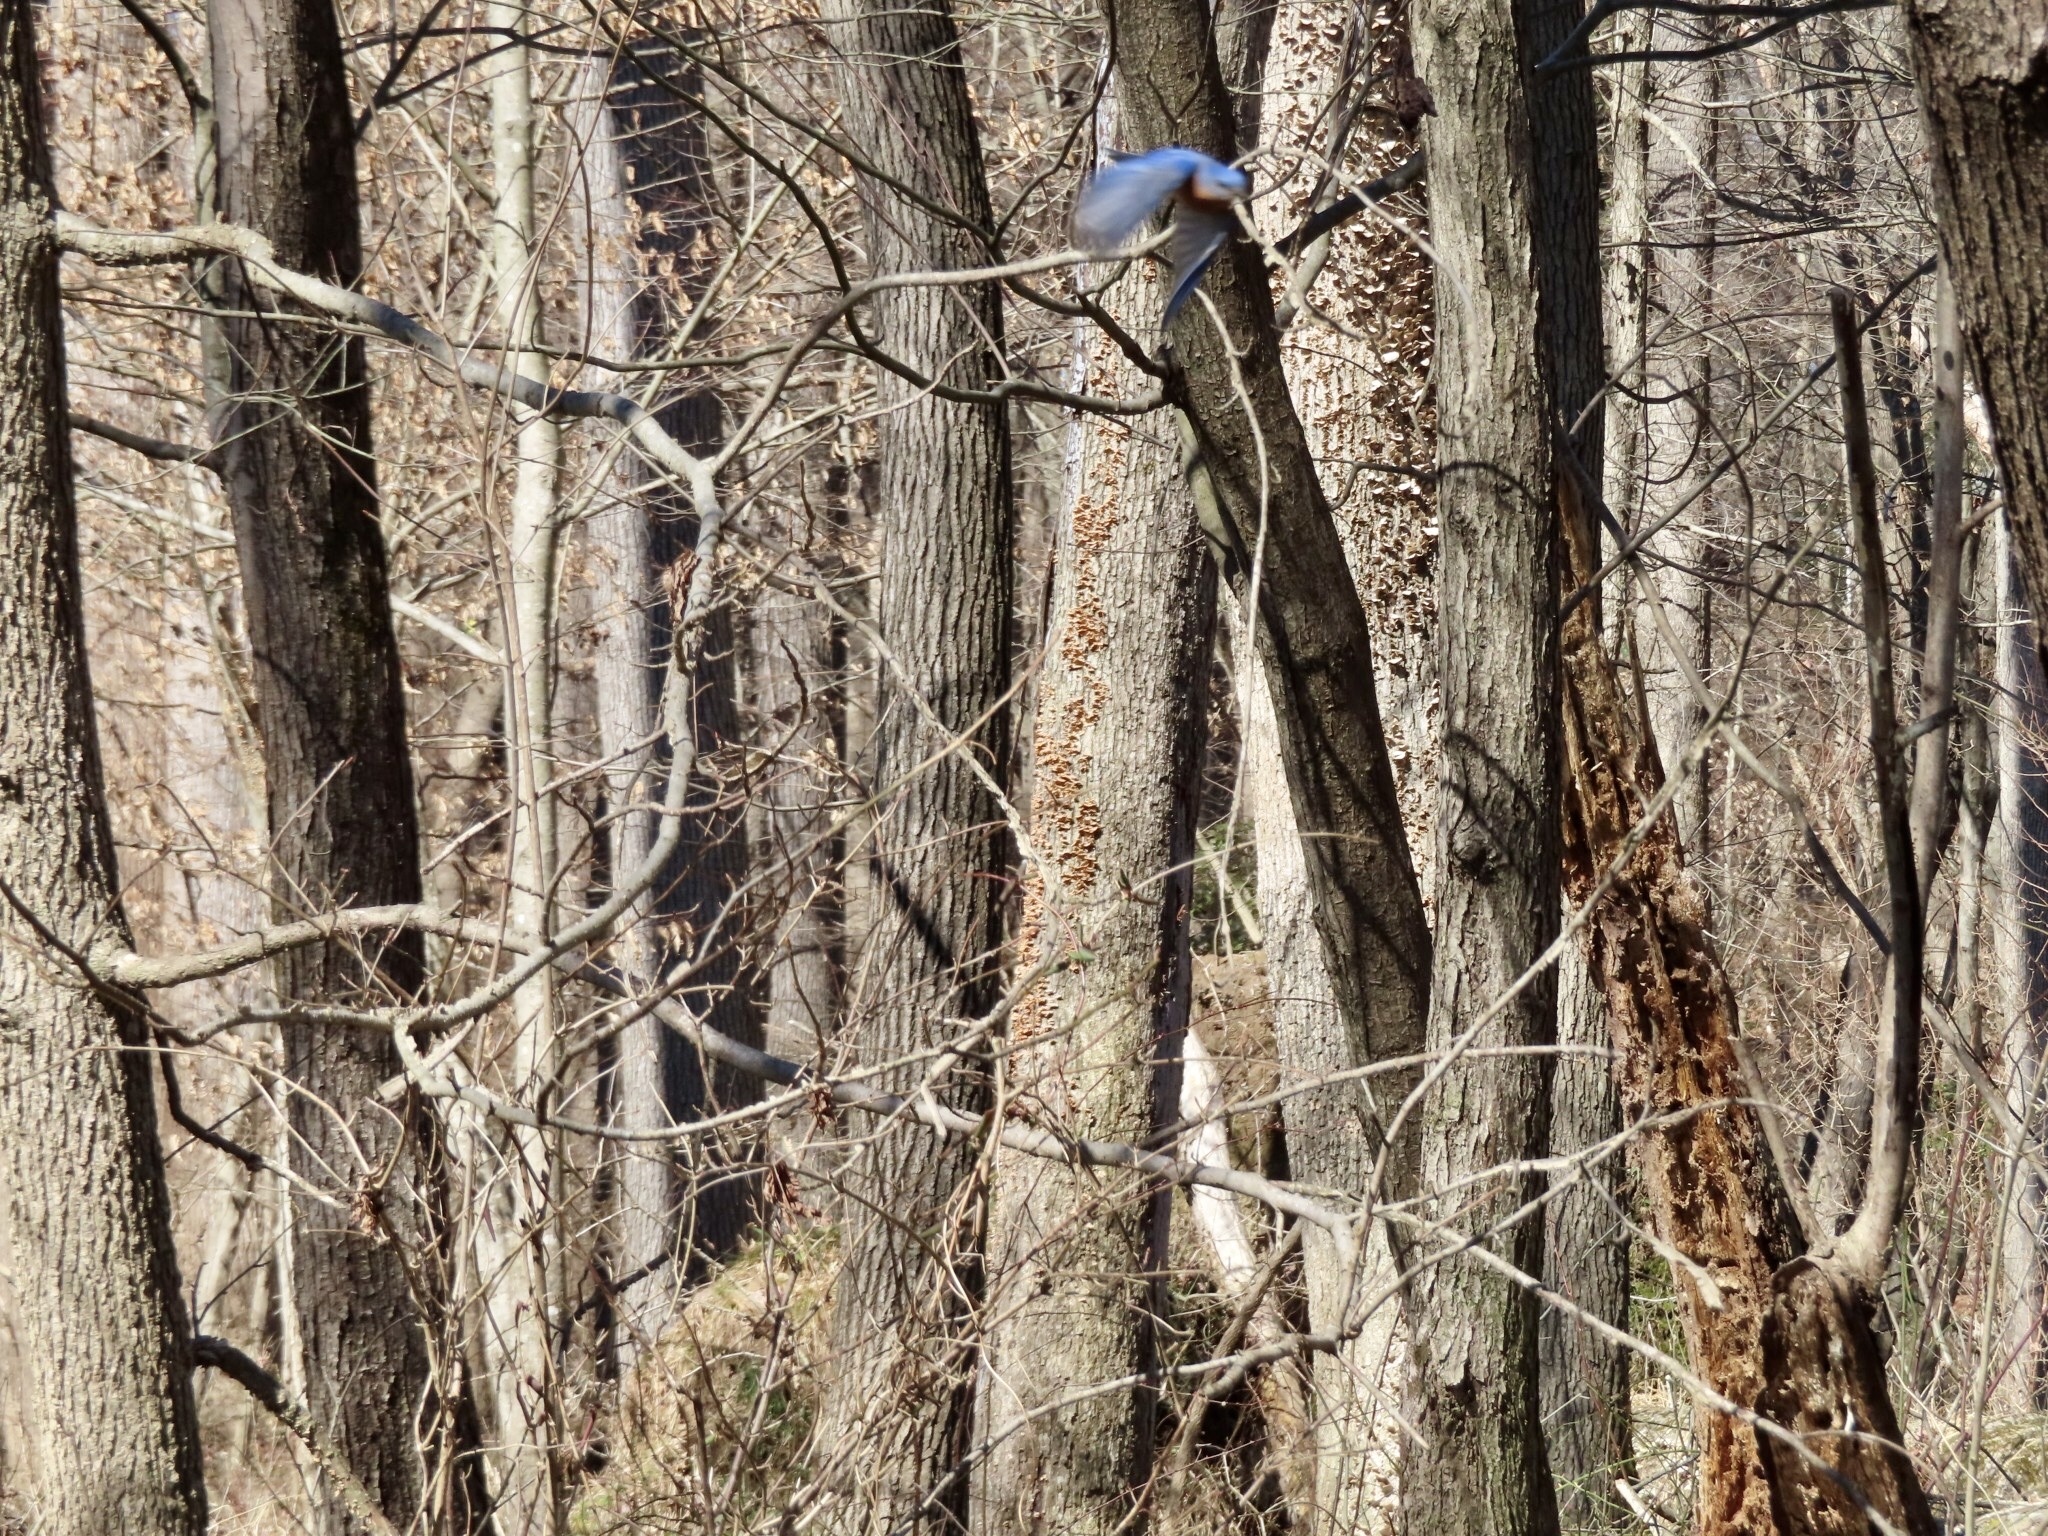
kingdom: Animalia
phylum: Chordata
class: Aves
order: Passeriformes
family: Turdidae
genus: Sialia
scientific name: Sialia sialis
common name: Eastern bluebird
